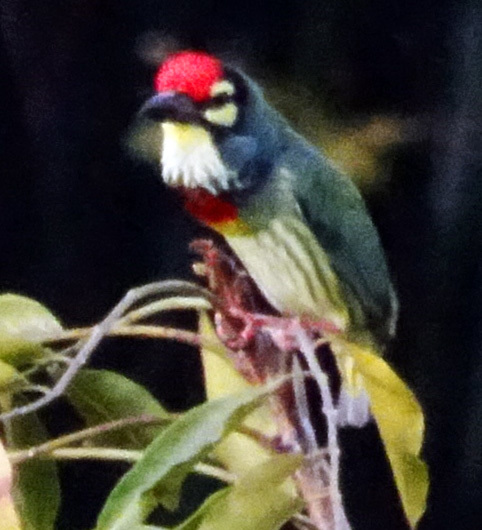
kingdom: Animalia
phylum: Chordata
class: Aves
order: Piciformes
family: Megalaimidae
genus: Psilopogon
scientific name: Psilopogon haemacephalus
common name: Coppersmith barbet
